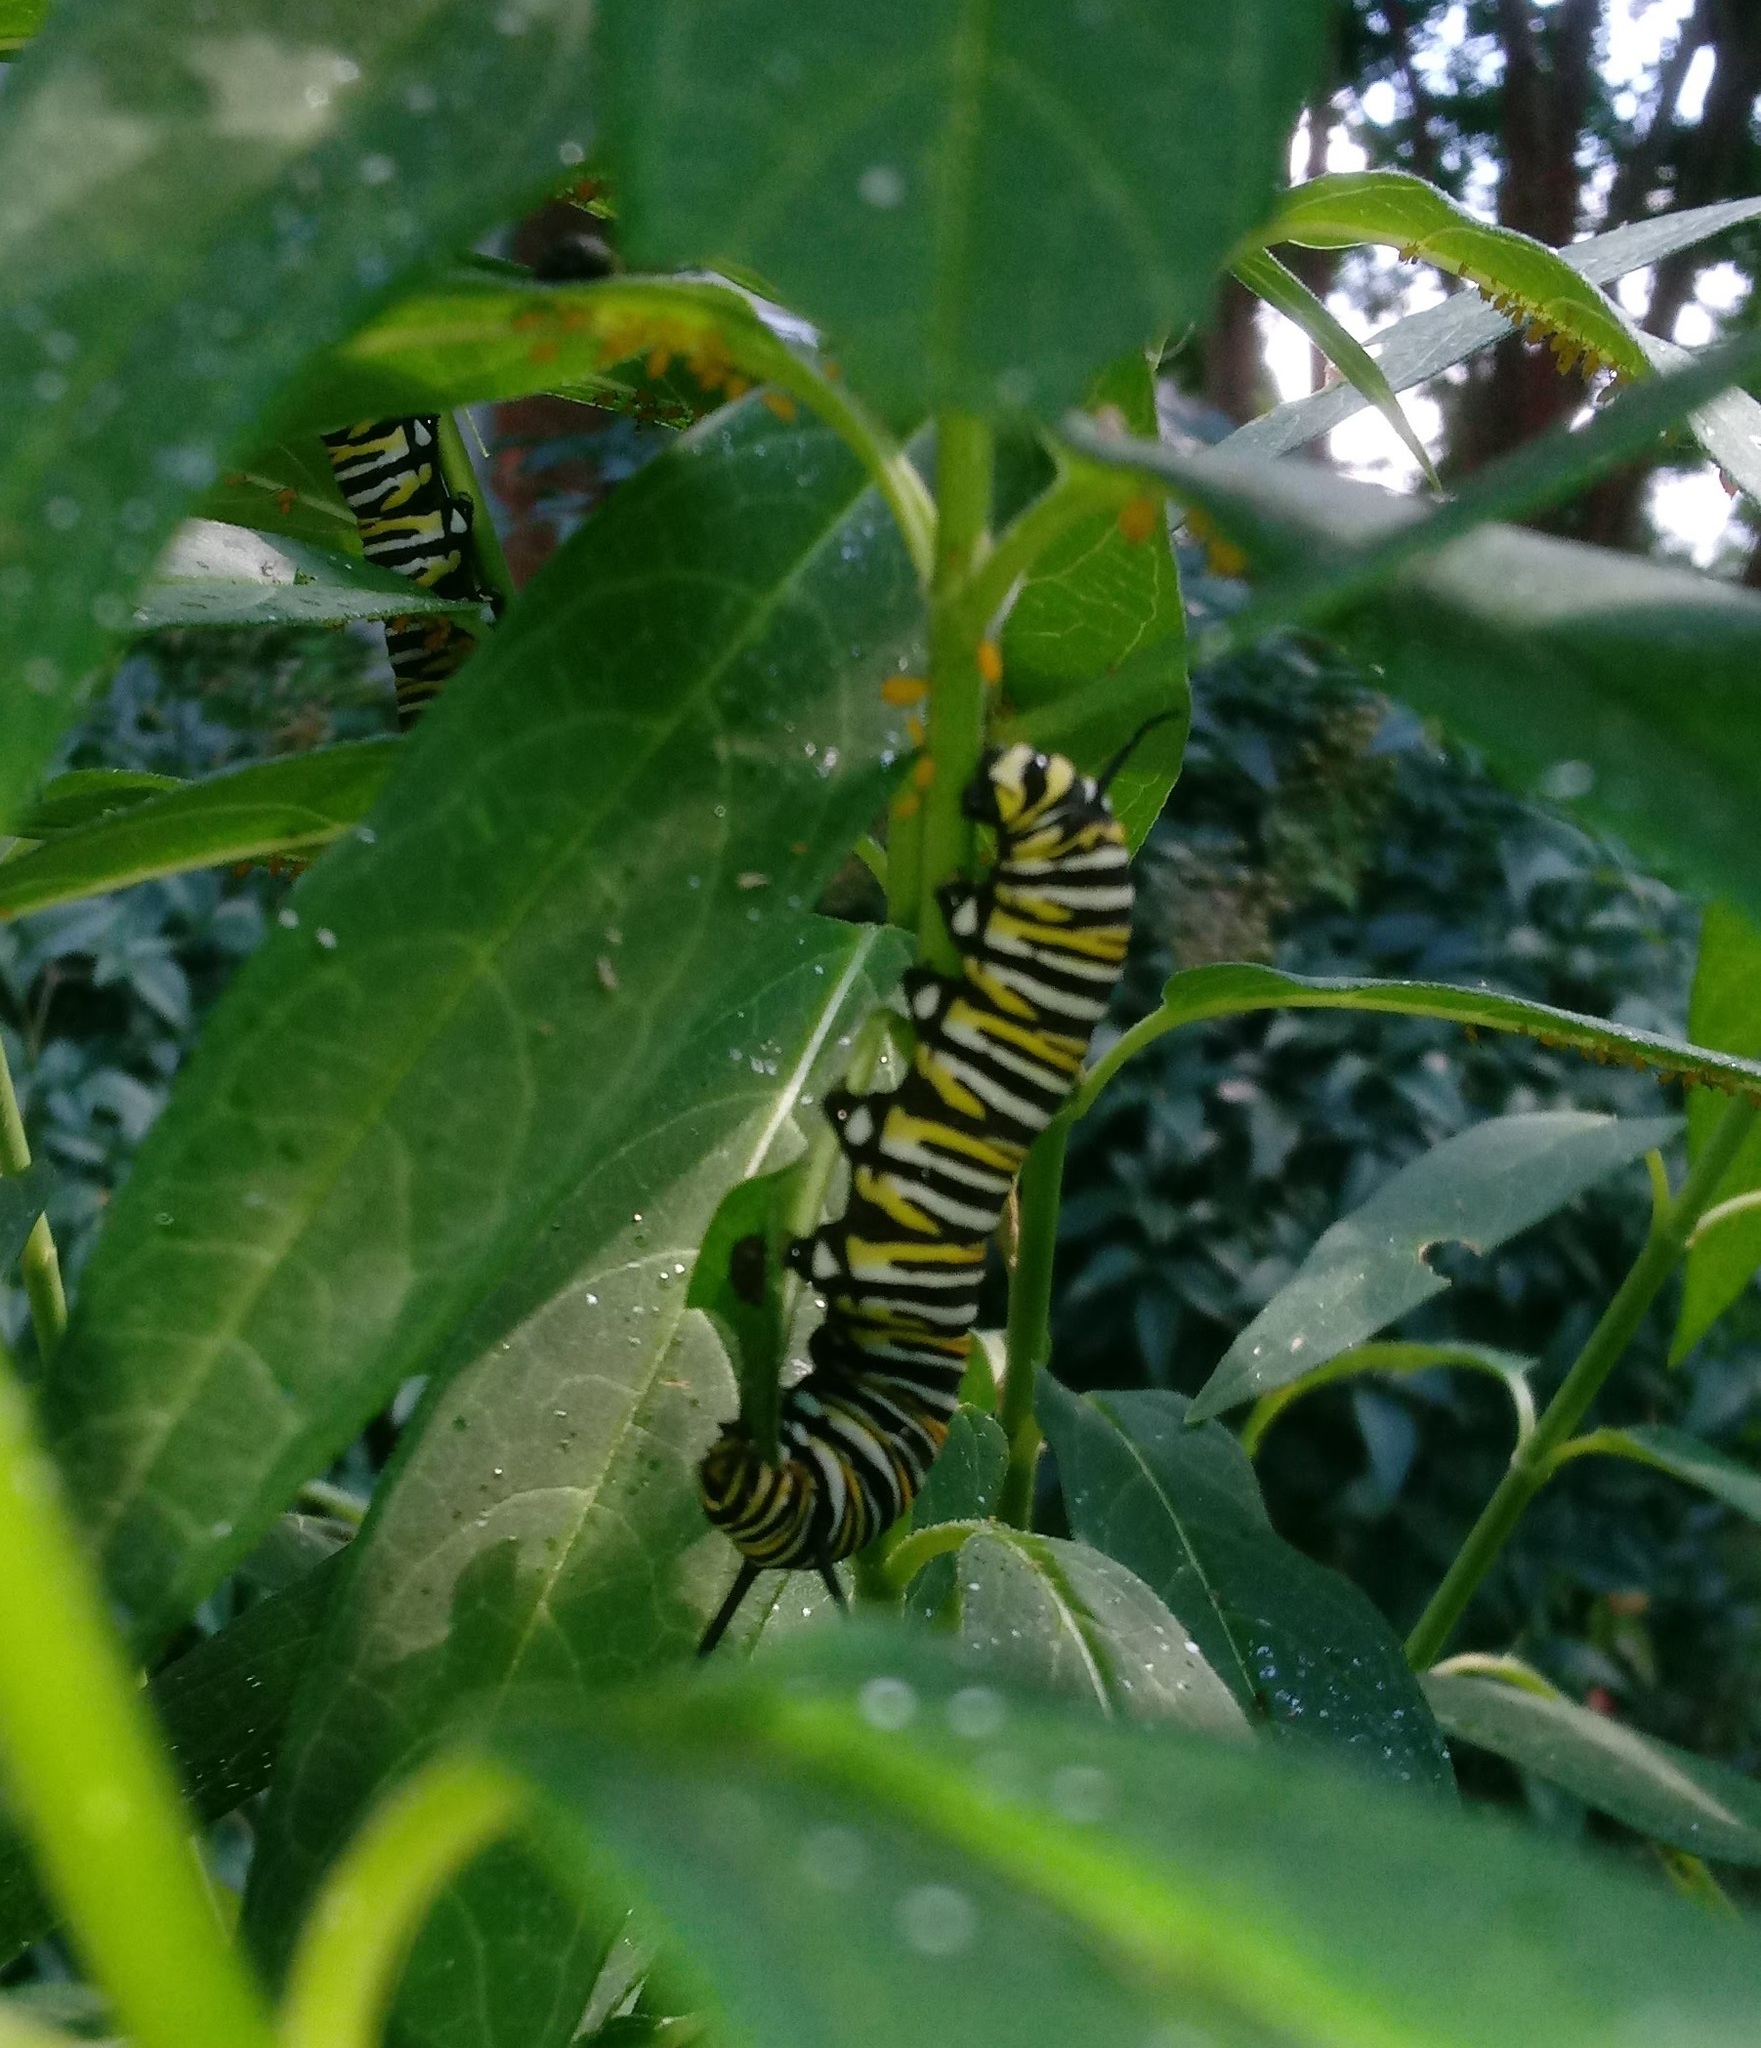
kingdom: Animalia
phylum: Arthropoda
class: Insecta
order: Lepidoptera
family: Nymphalidae
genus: Danaus
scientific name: Danaus plexippus
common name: Monarch
